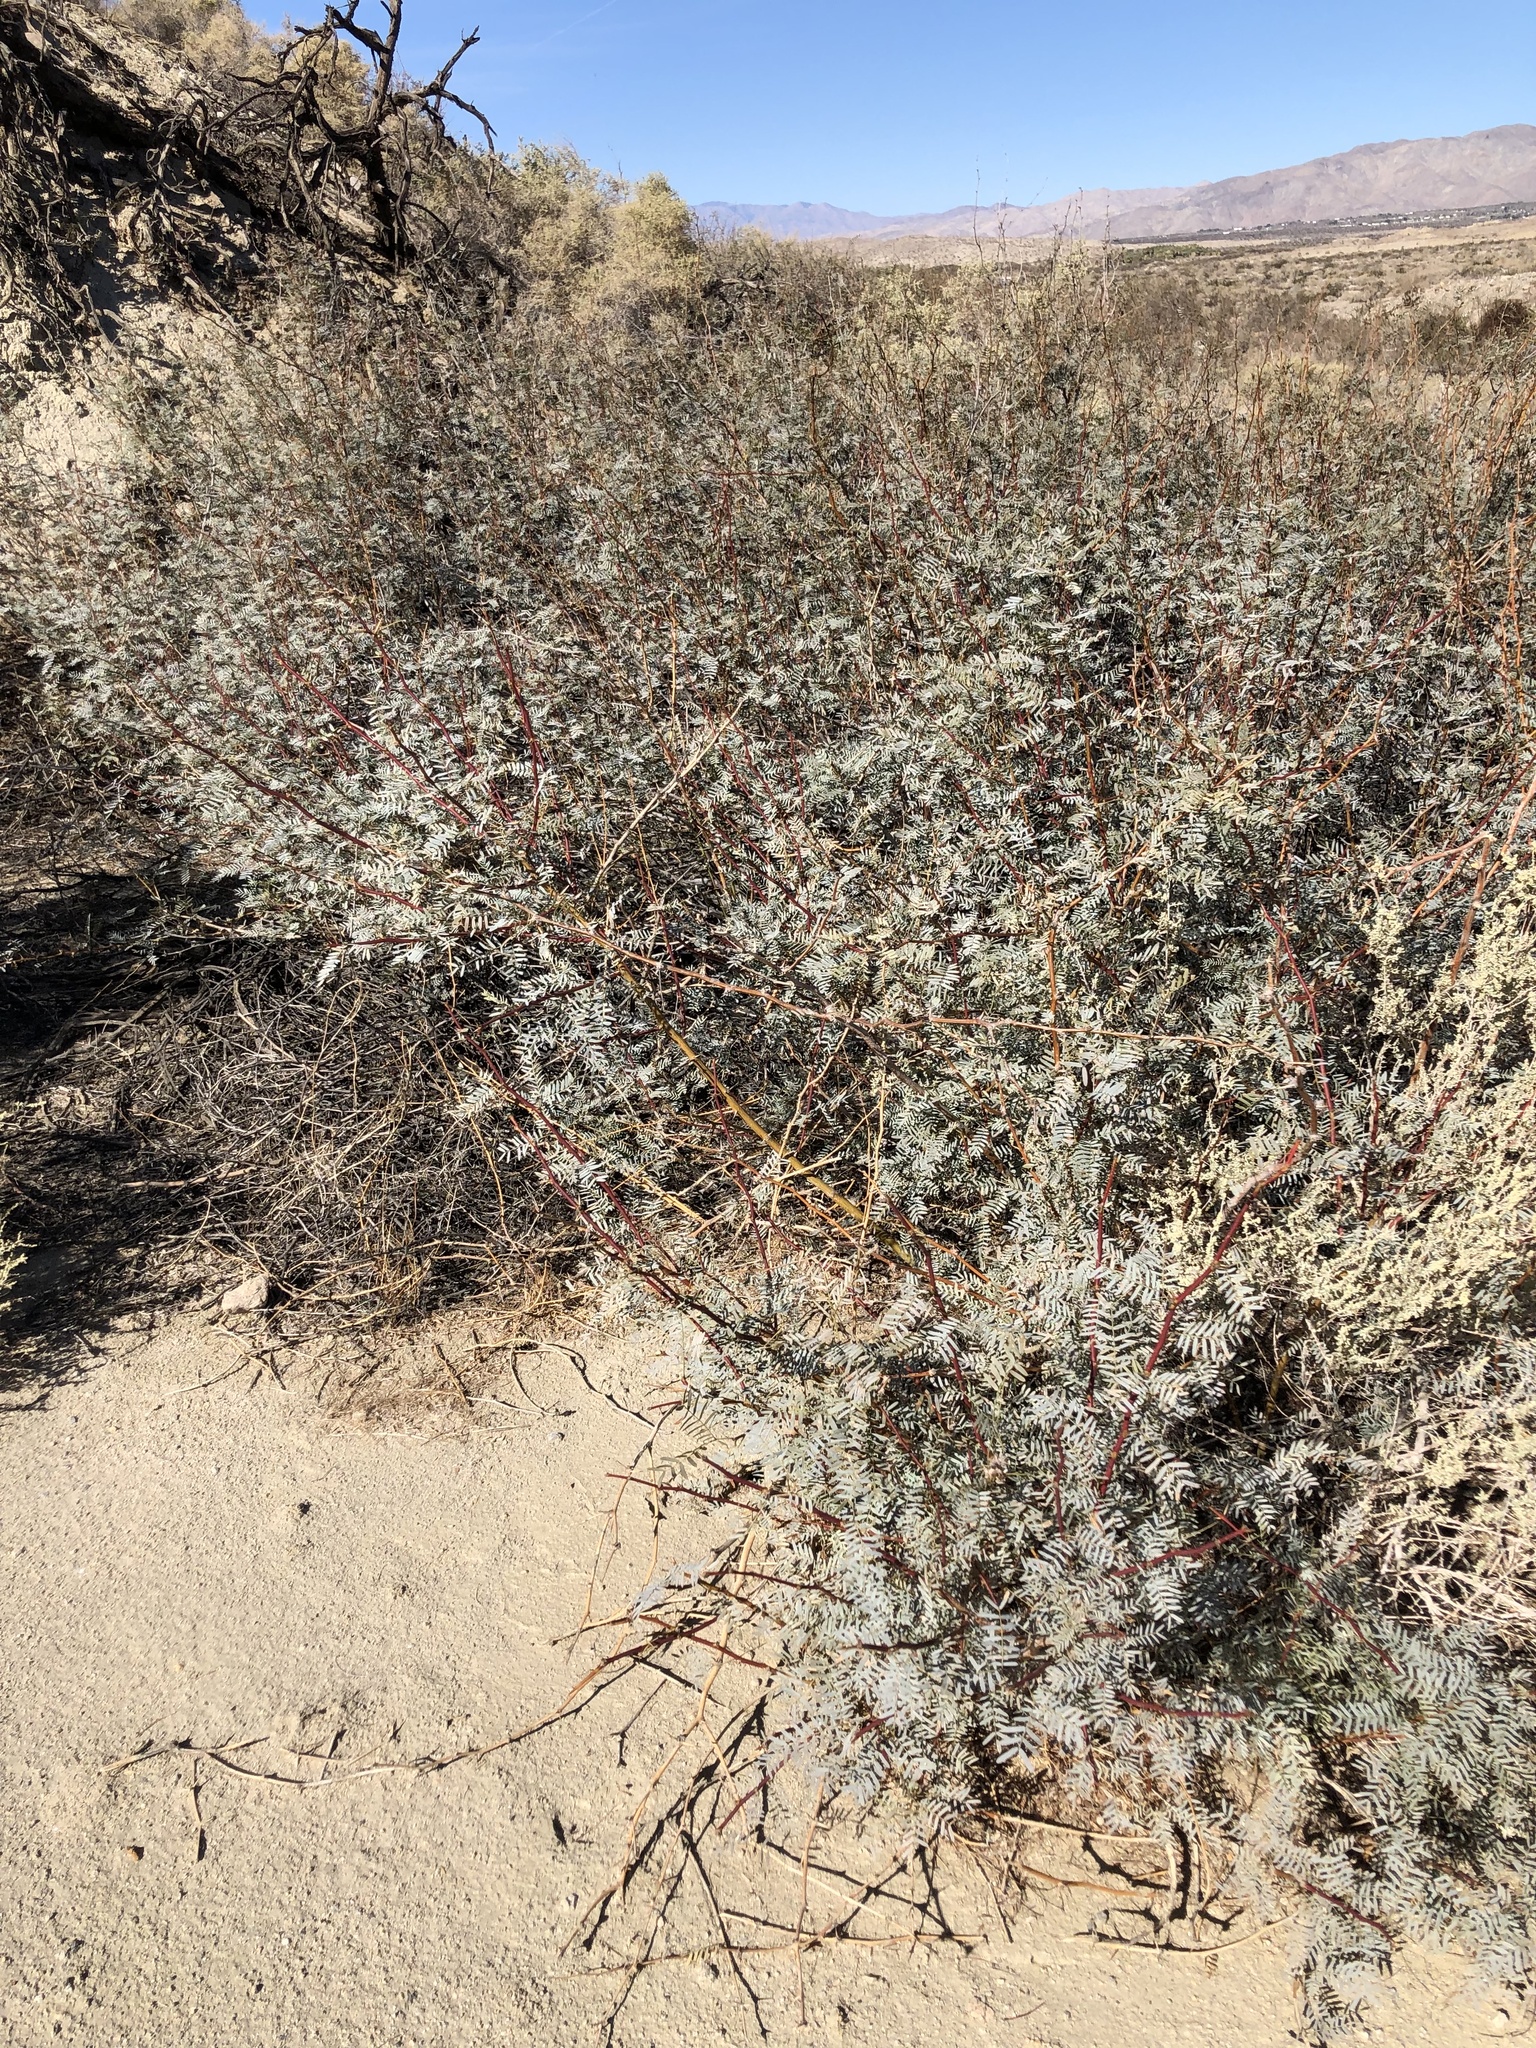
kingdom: Plantae
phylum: Tracheophyta
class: Magnoliopsida
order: Fabales
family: Fabaceae
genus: Prosopis
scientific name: Prosopis pubescens
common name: Screw-bean
